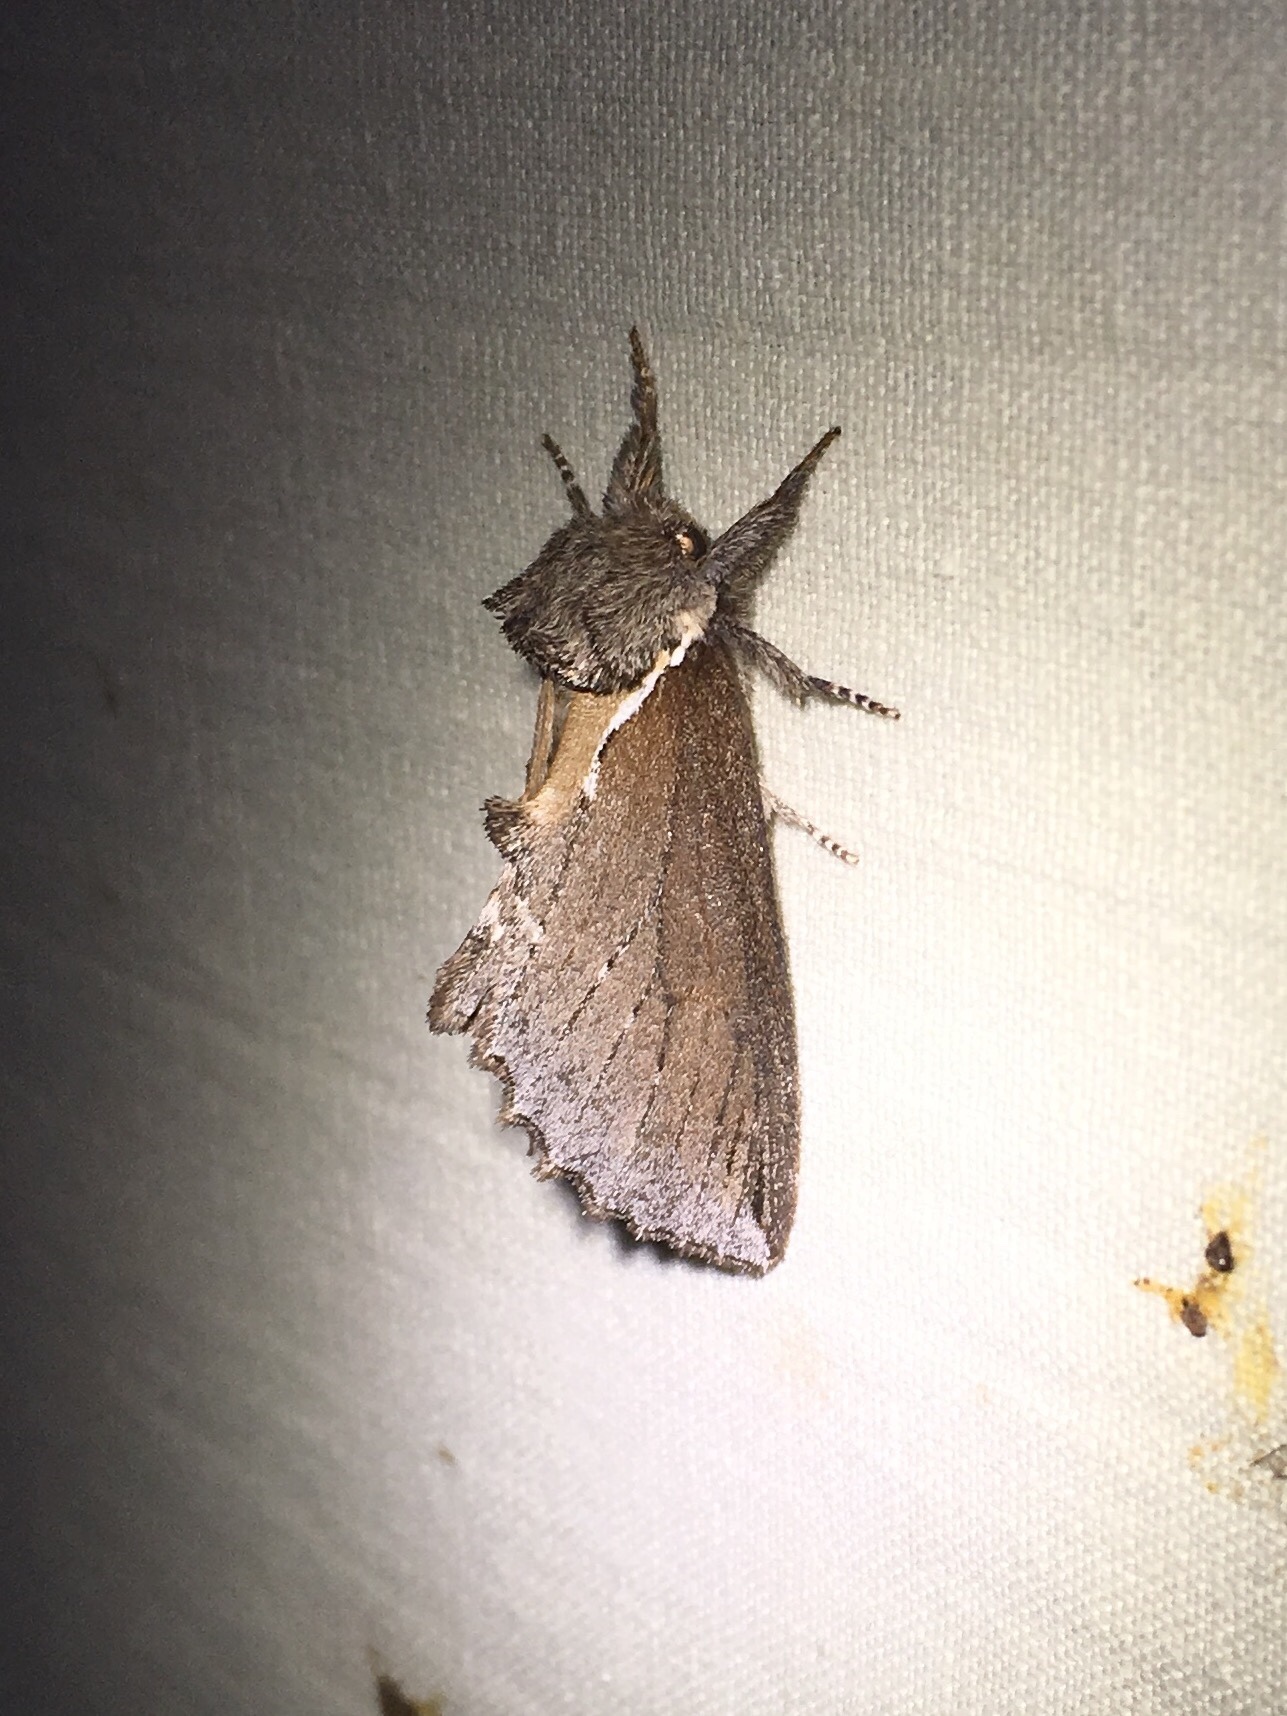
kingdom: Animalia
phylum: Arthropoda
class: Insecta
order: Lepidoptera
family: Notodontidae
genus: Pheosidea
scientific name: Pheosidea elegans
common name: Elegant prominent
